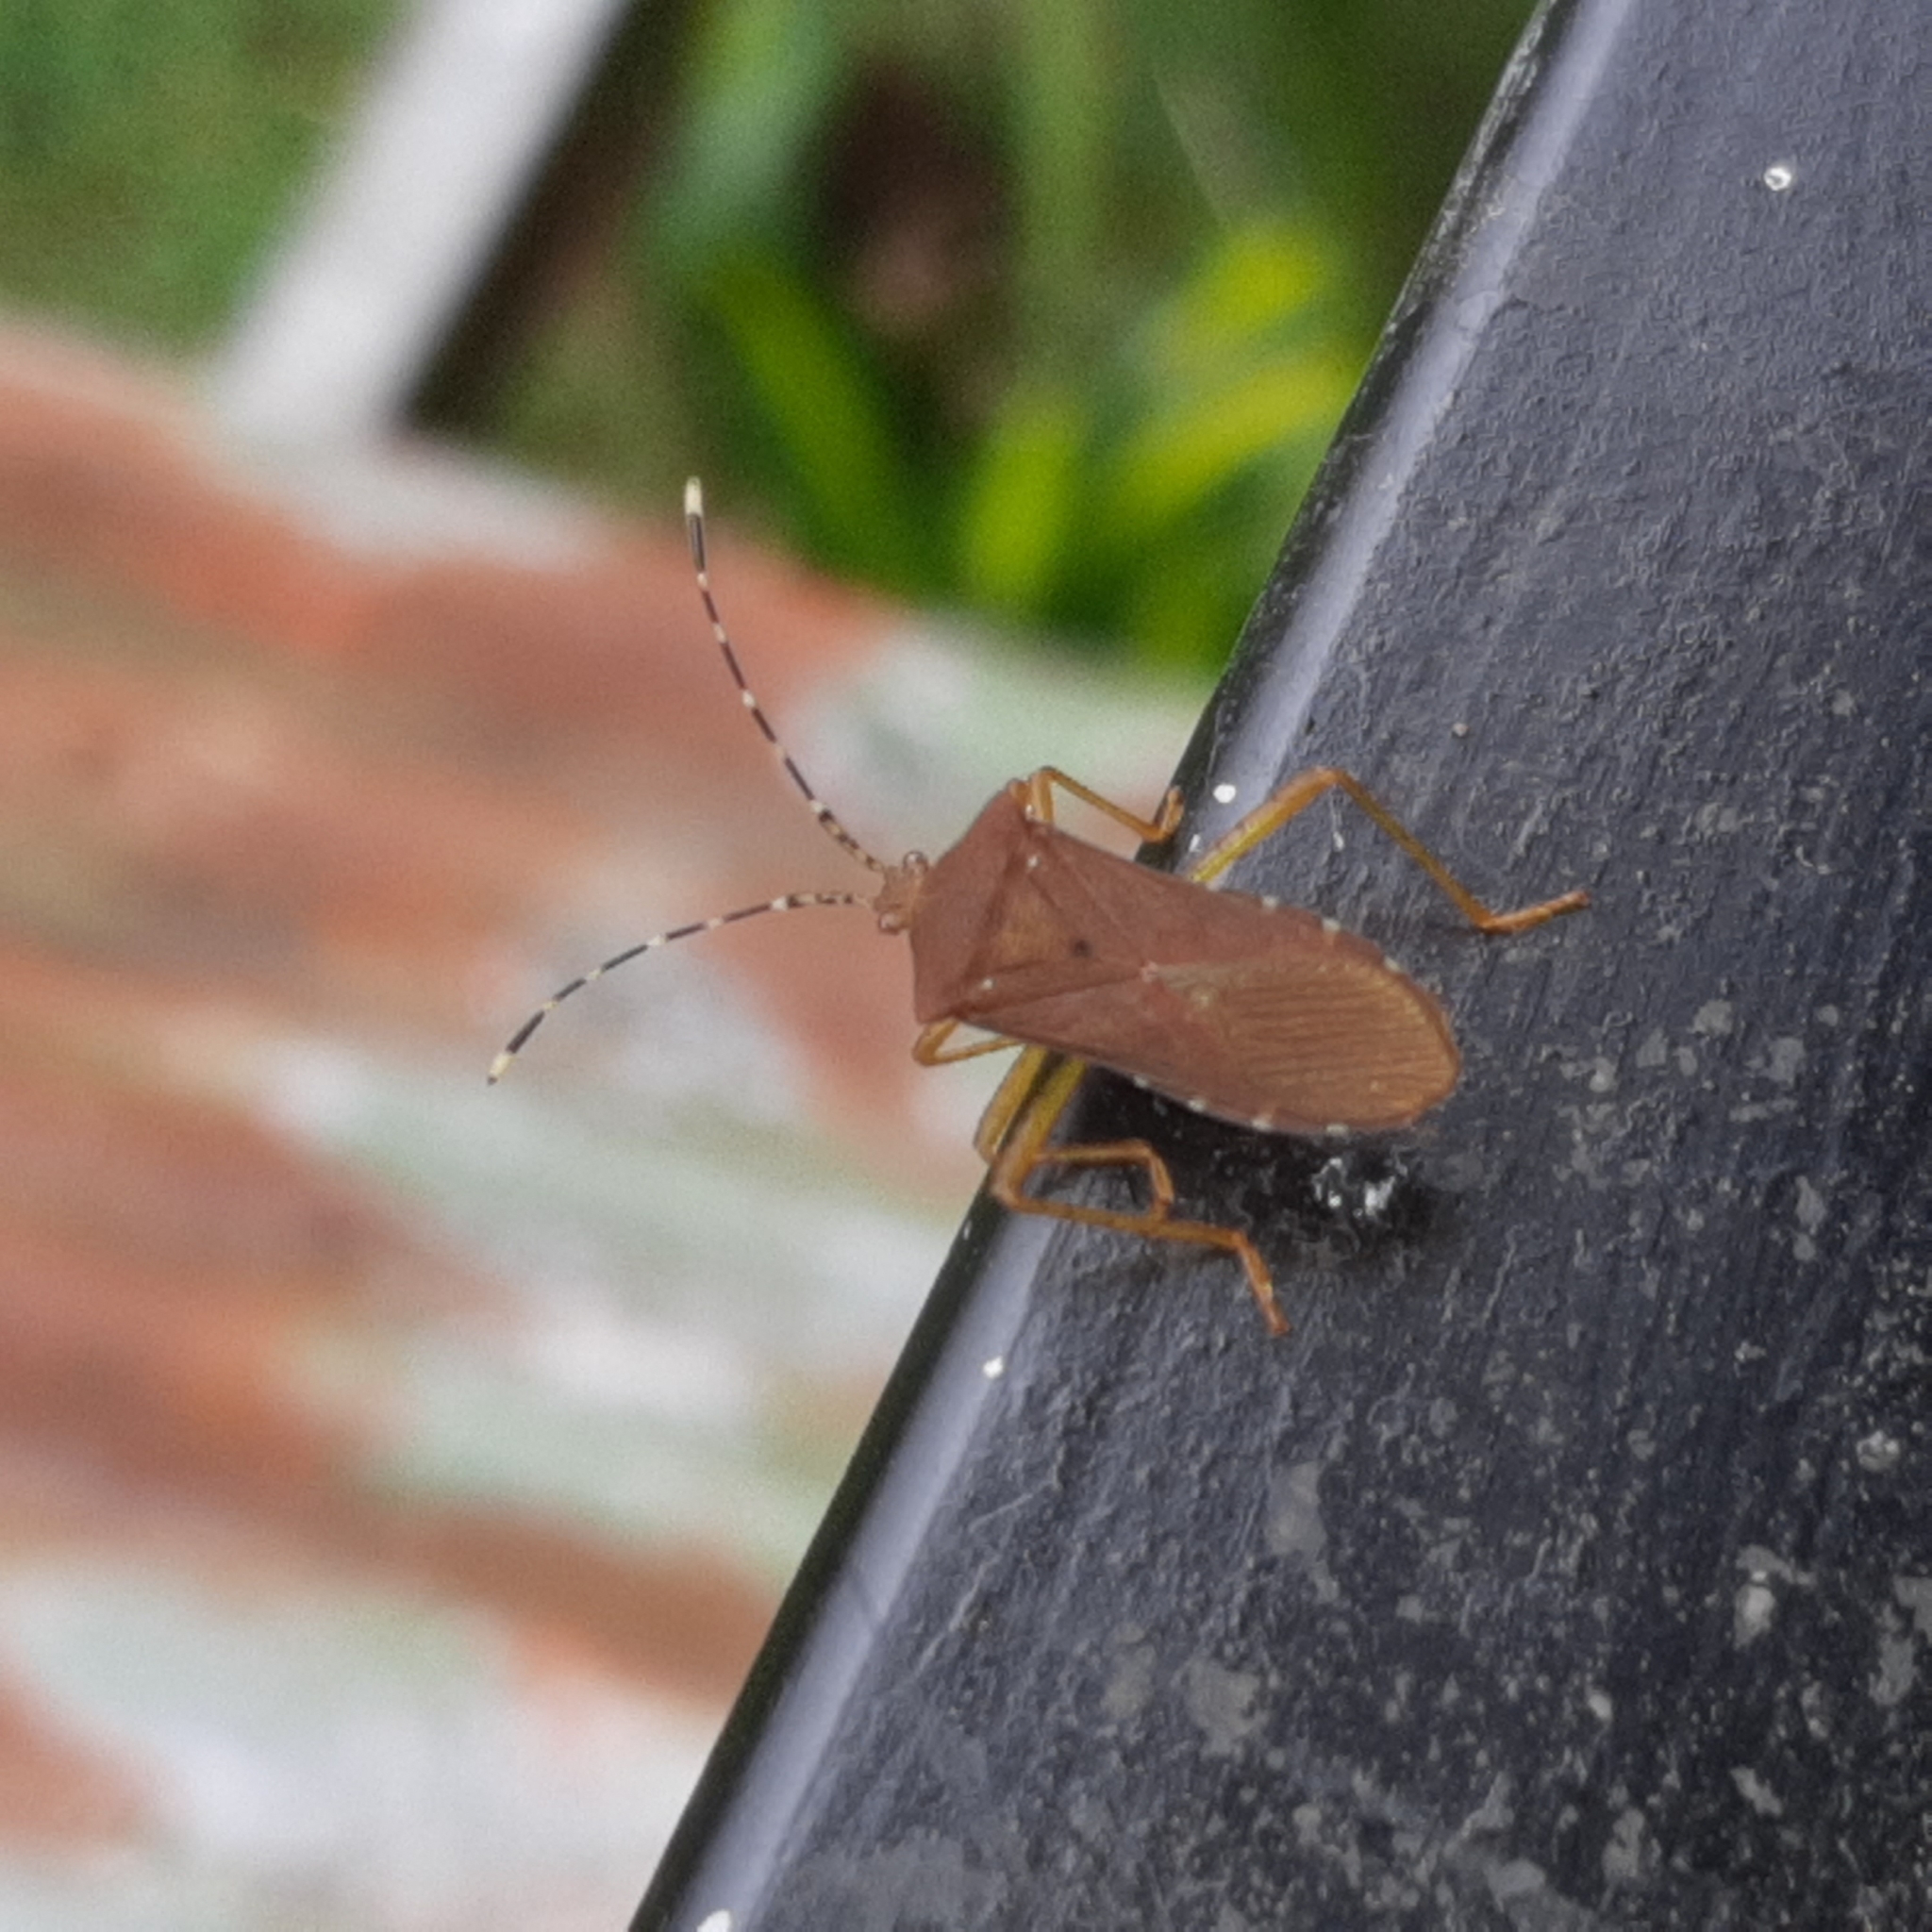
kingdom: Animalia
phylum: Arthropoda
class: Insecta
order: Hemiptera
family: Coreidae
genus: Anasa
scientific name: Anasa bellator
